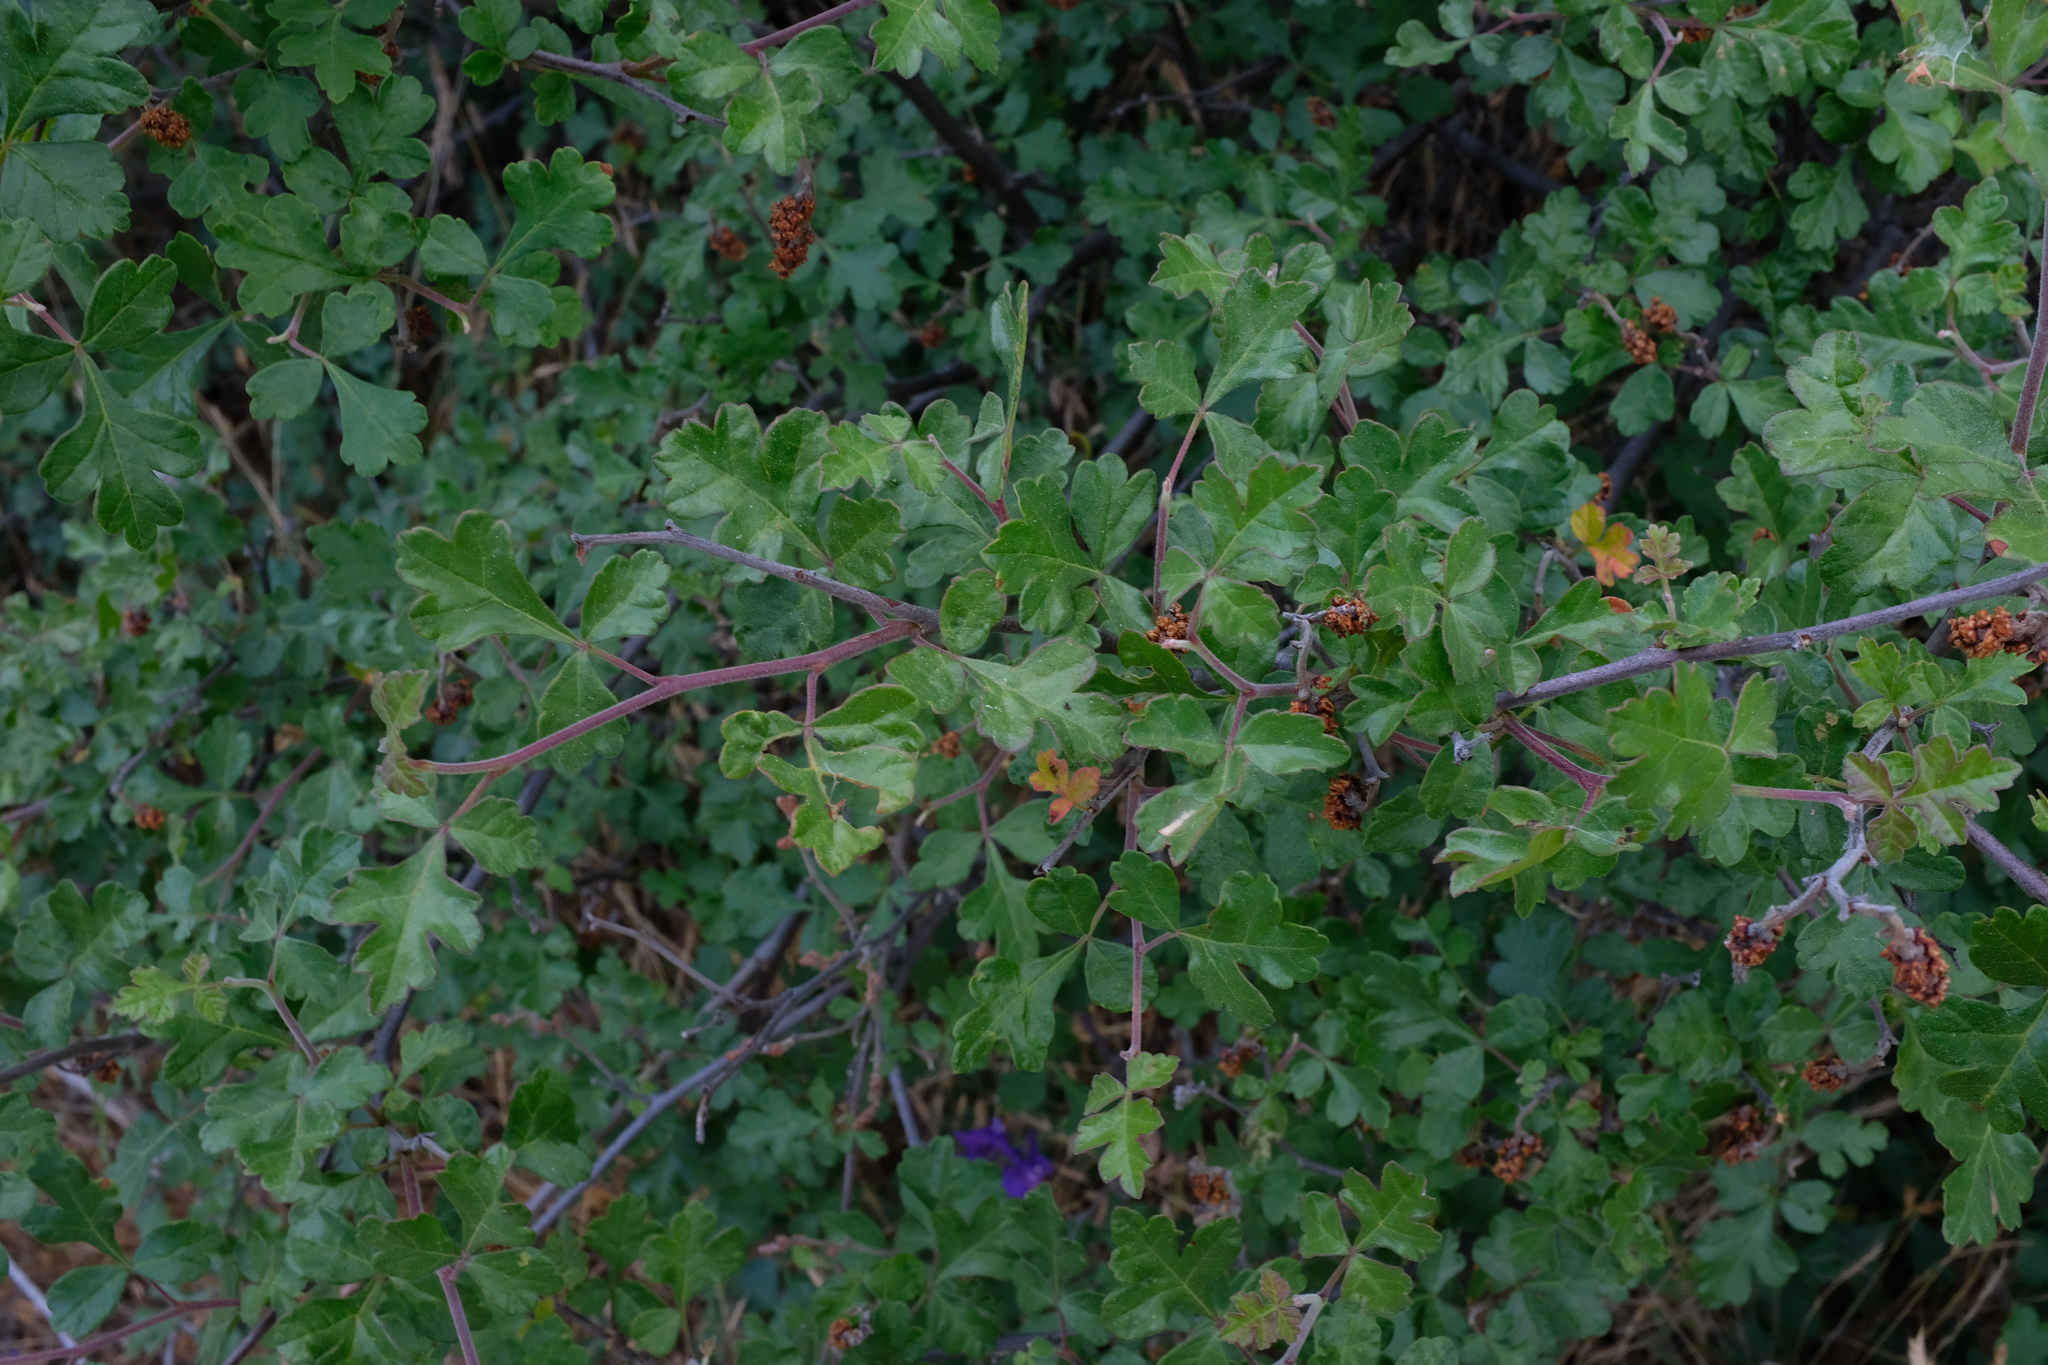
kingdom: Plantae
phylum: Tracheophyta
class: Magnoliopsida
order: Sapindales
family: Anacardiaceae
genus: Rhus
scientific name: Rhus aromatica
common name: Aromatic sumac
